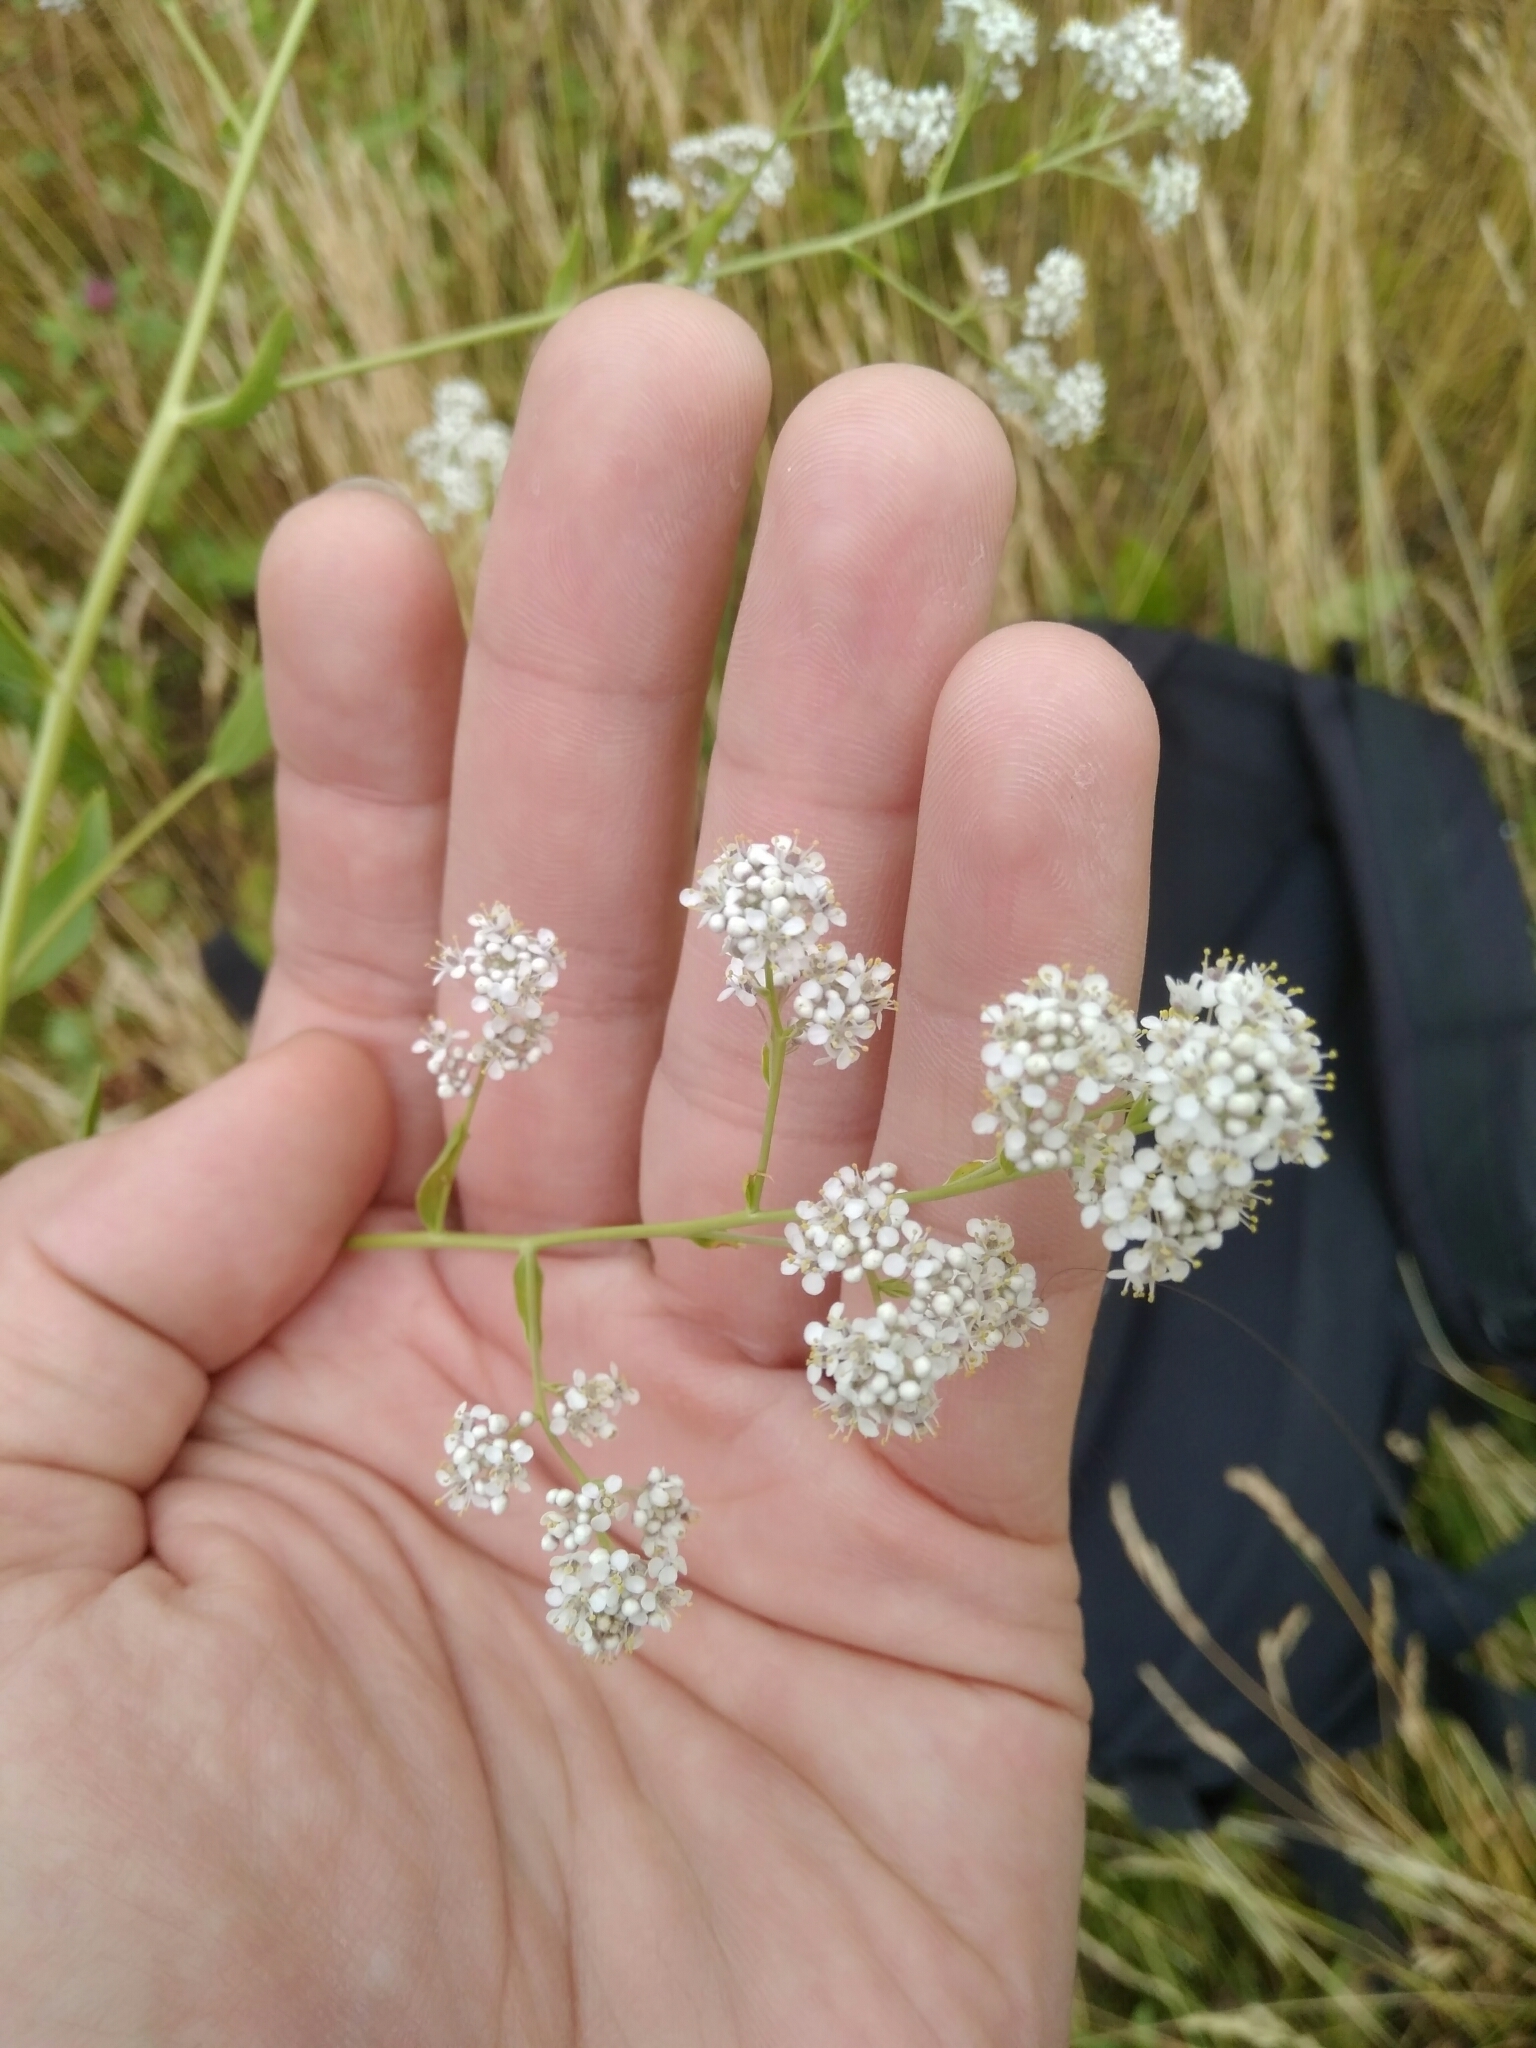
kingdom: Plantae
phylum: Tracheophyta
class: Magnoliopsida
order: Brassicales
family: Brassicaceae
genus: Lepidium
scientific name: Lepidium latifolium
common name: Dittander
